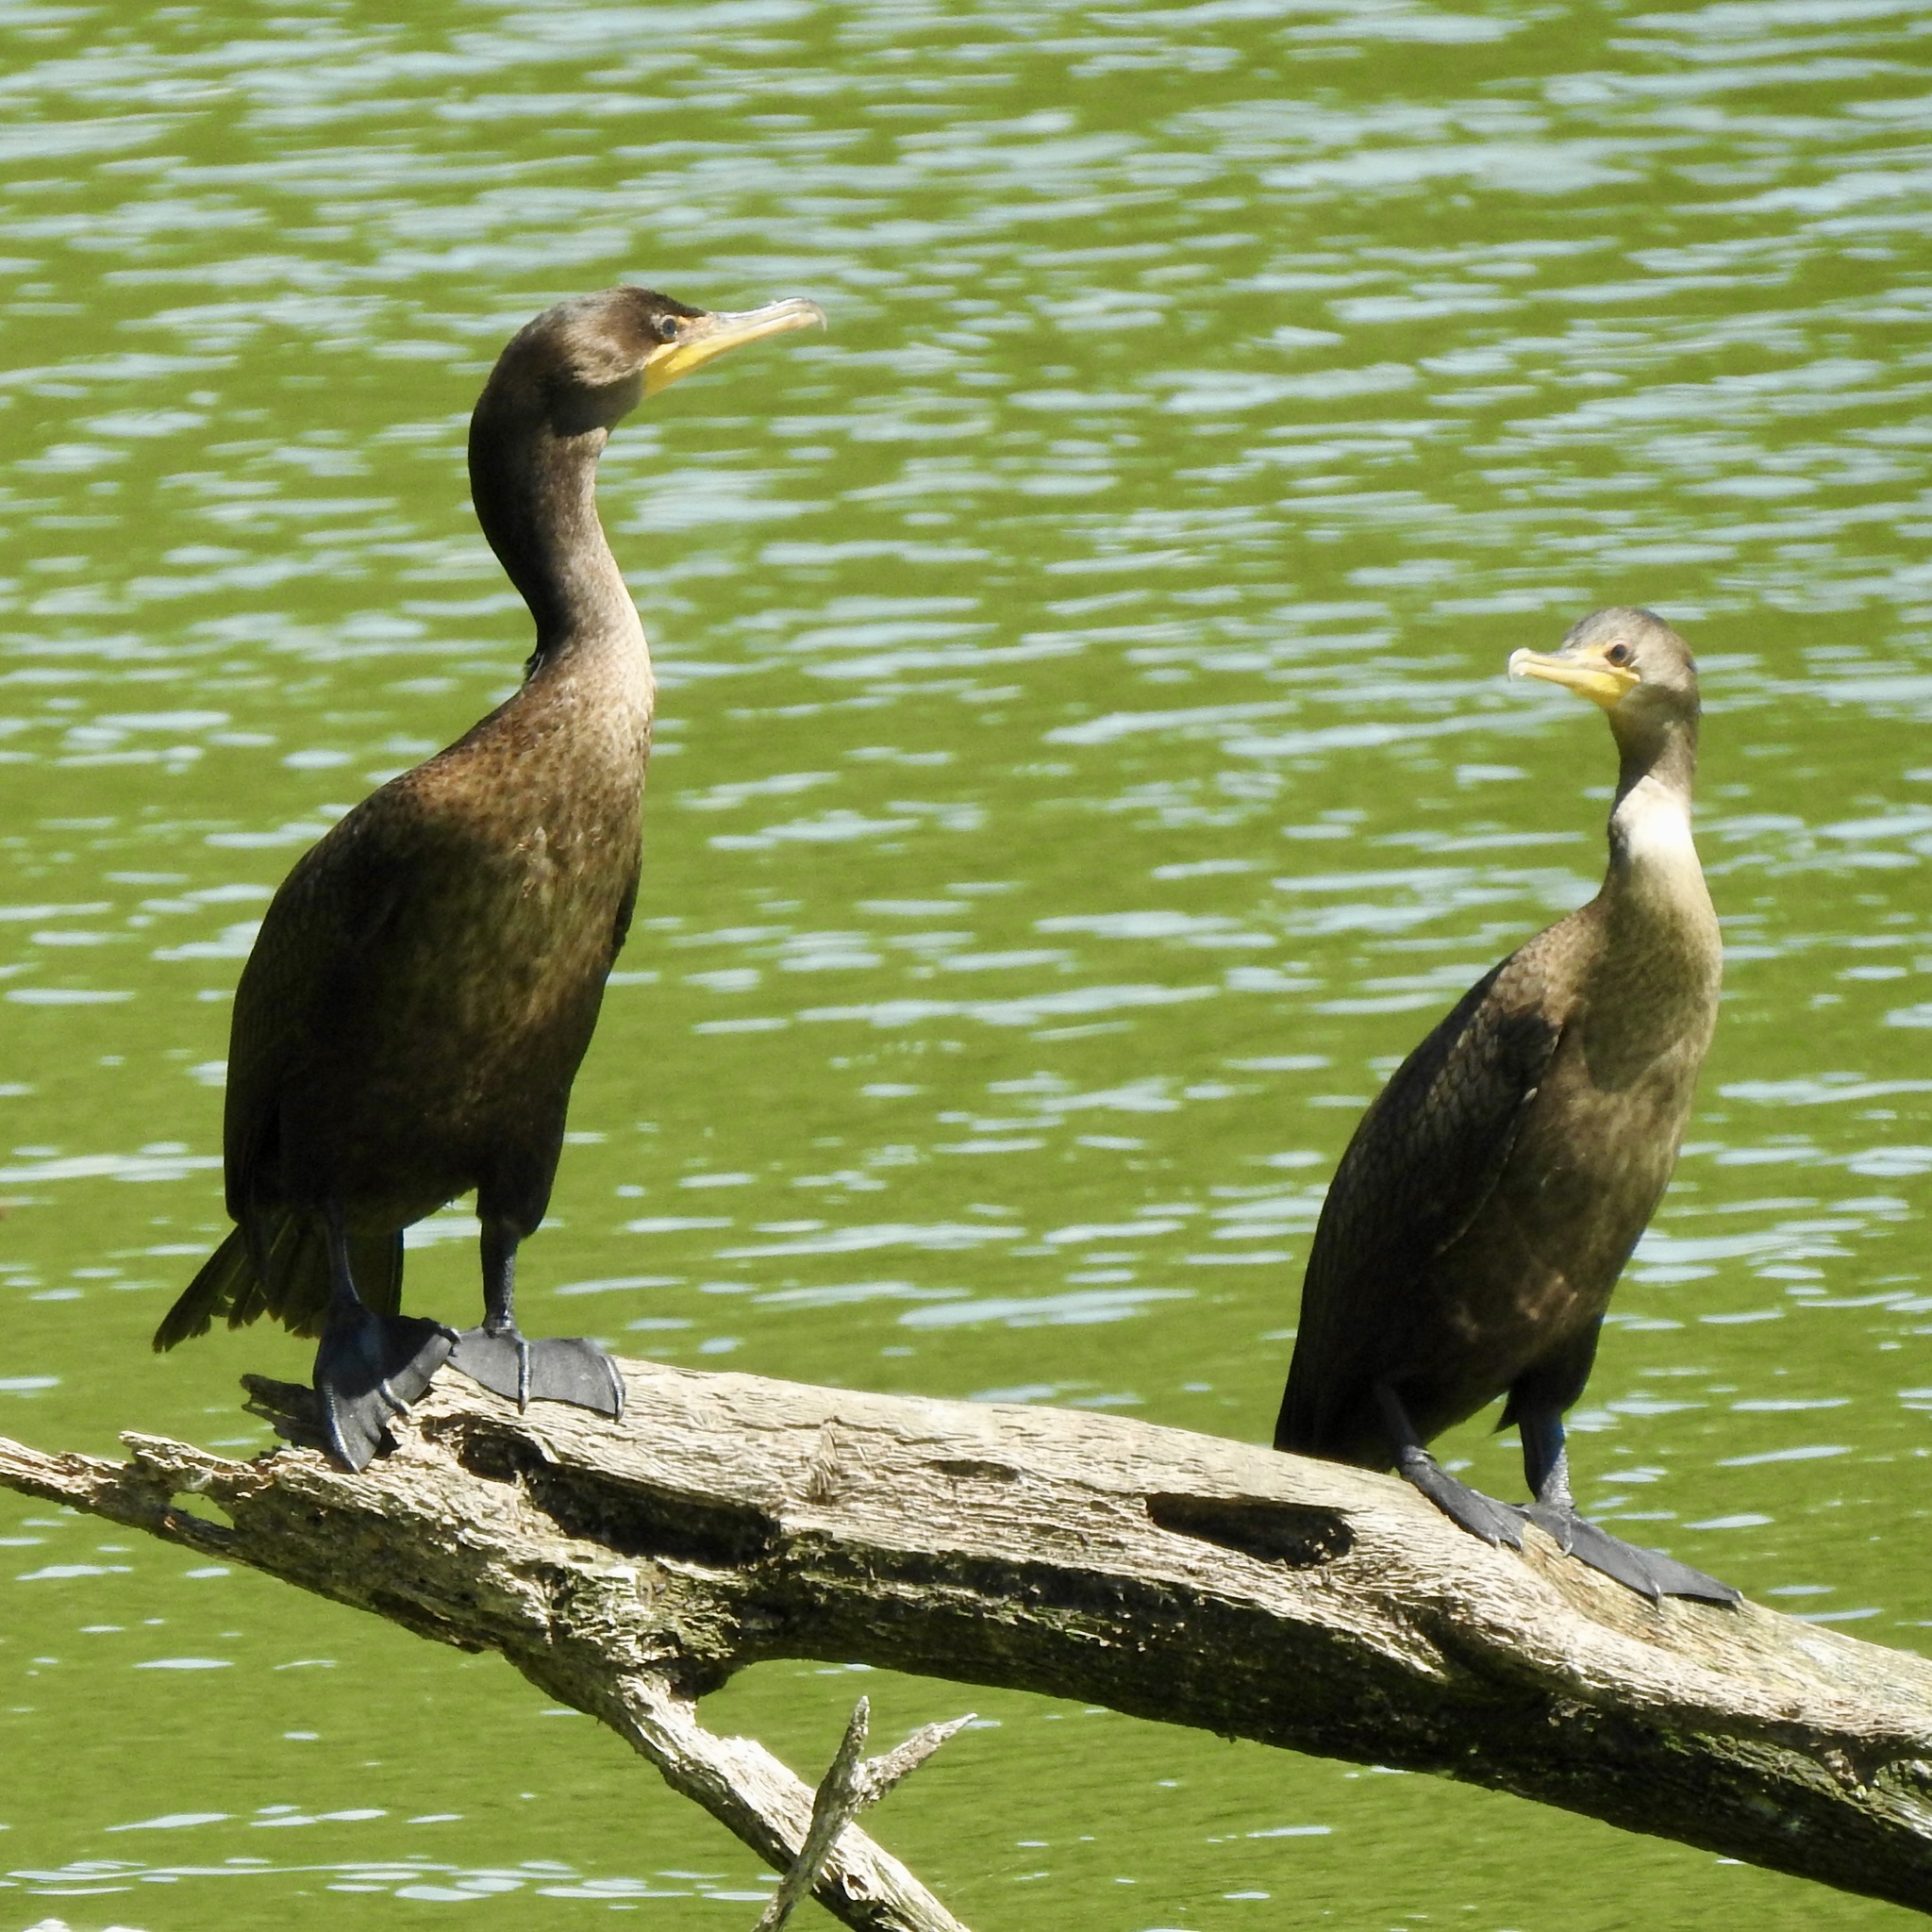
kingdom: Animalia
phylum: Chordata
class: Aves
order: Suliformes
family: Phalacrocoracidae
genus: Phalacrocorax
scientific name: Phalacrocorax auritus
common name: Double-crested cormorant
